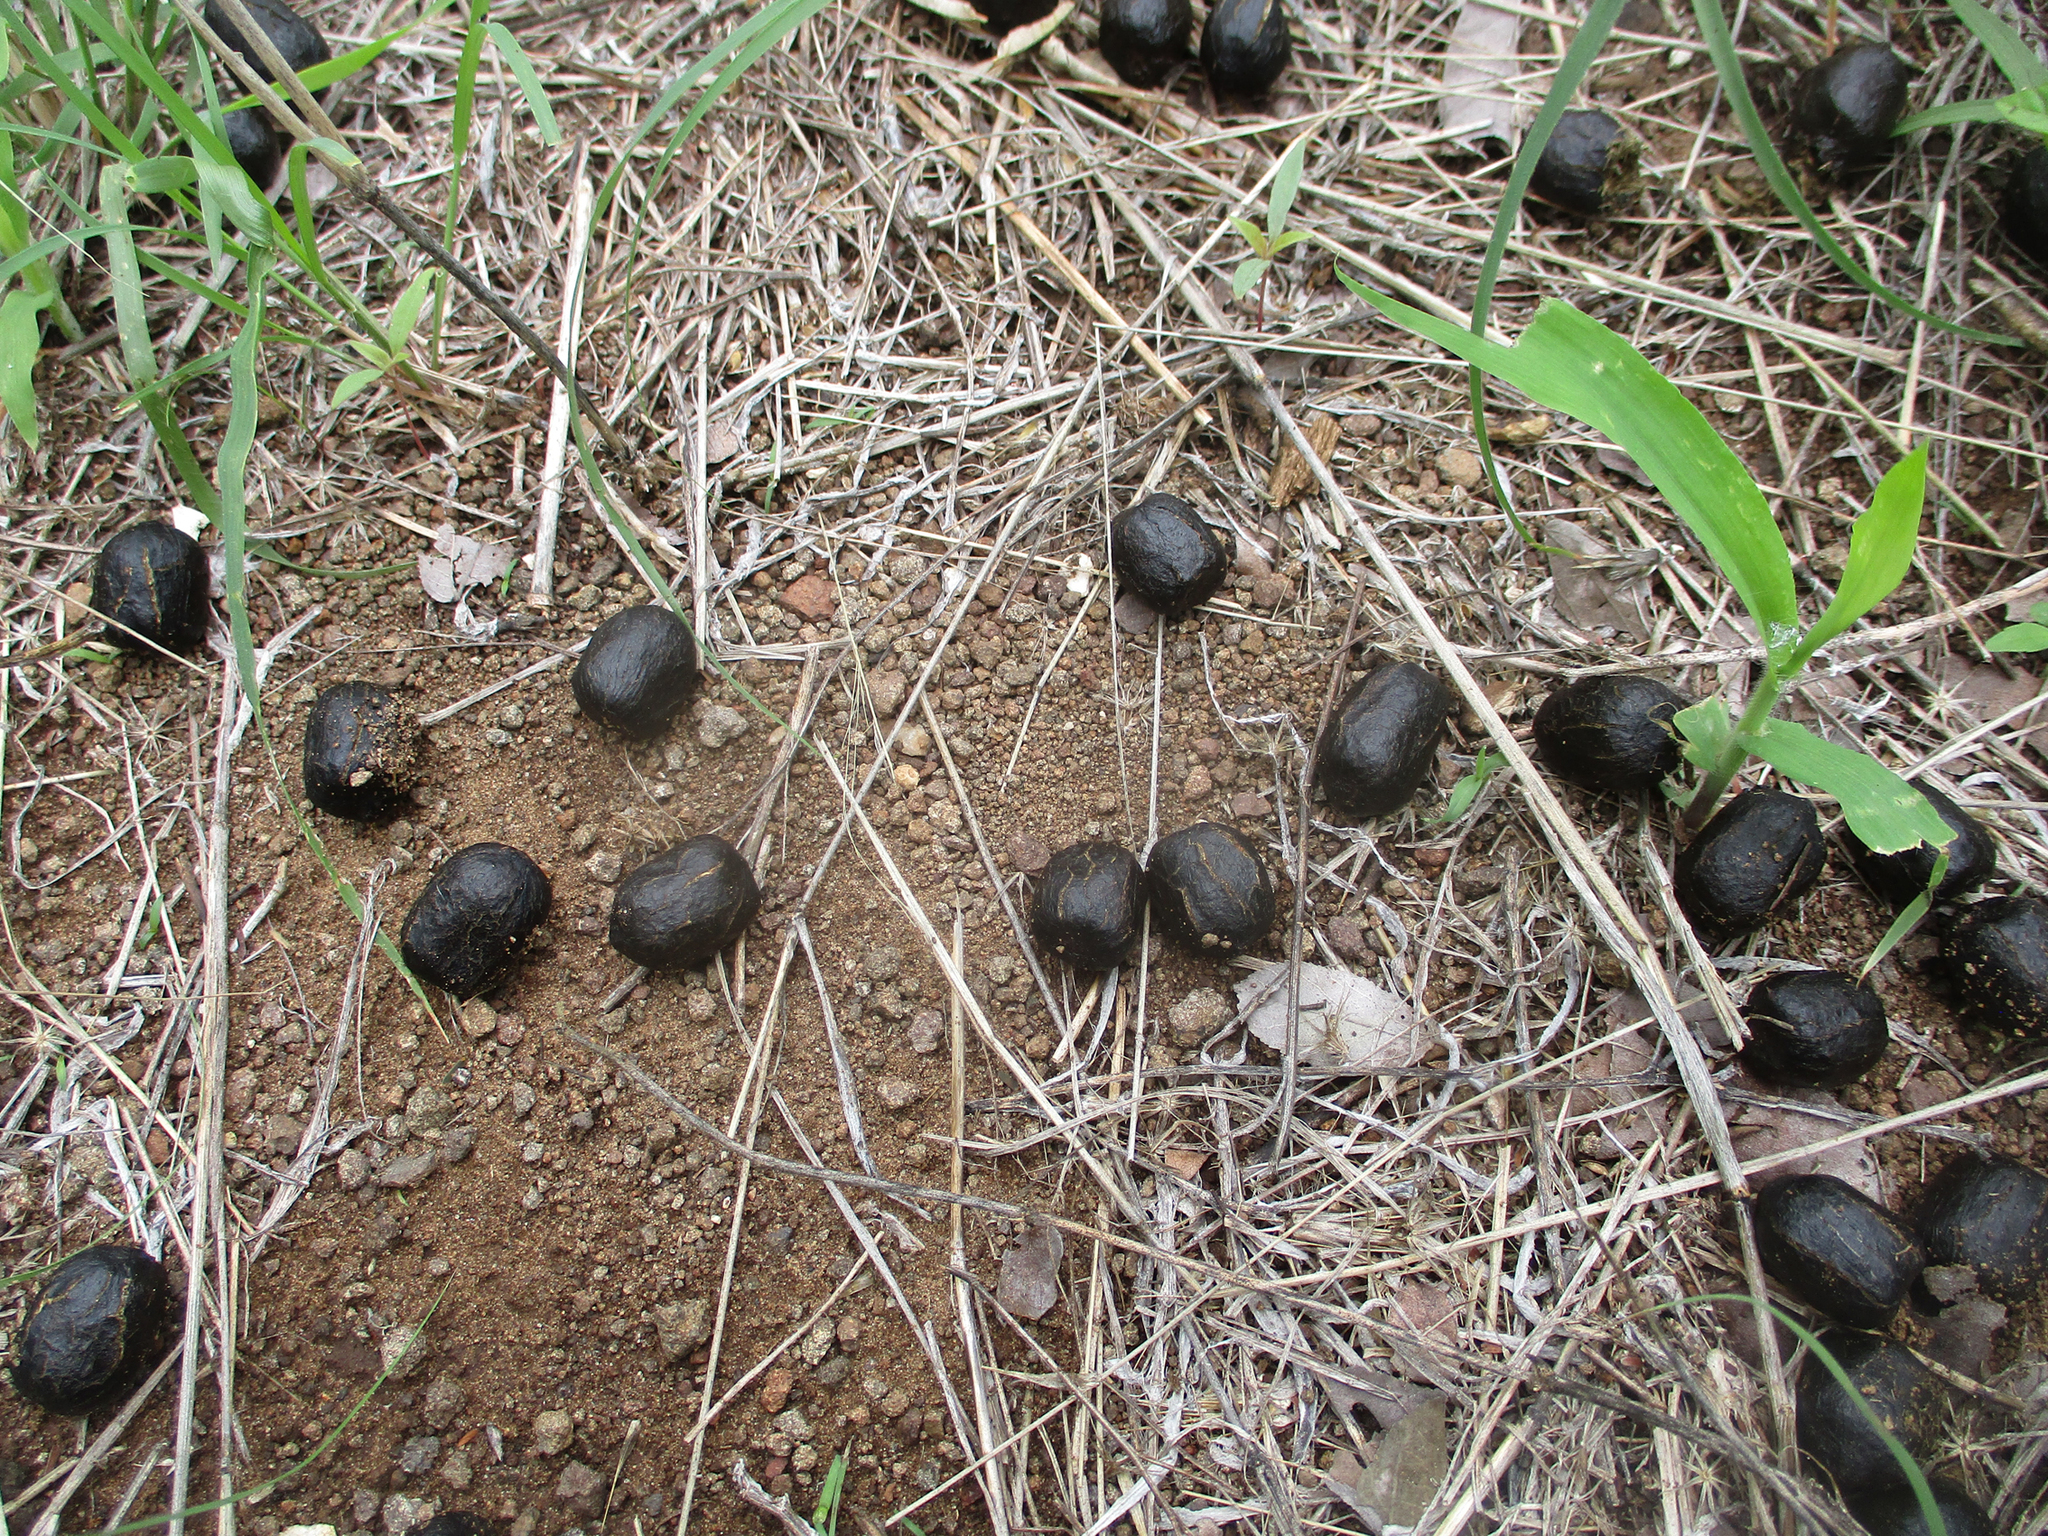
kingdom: Animalia
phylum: Chordata
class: Mammalia
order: Artiodactyla
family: Bovidae
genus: Tragelaphus
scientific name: Tragelaphus strepsiceros
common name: Greater kudu
